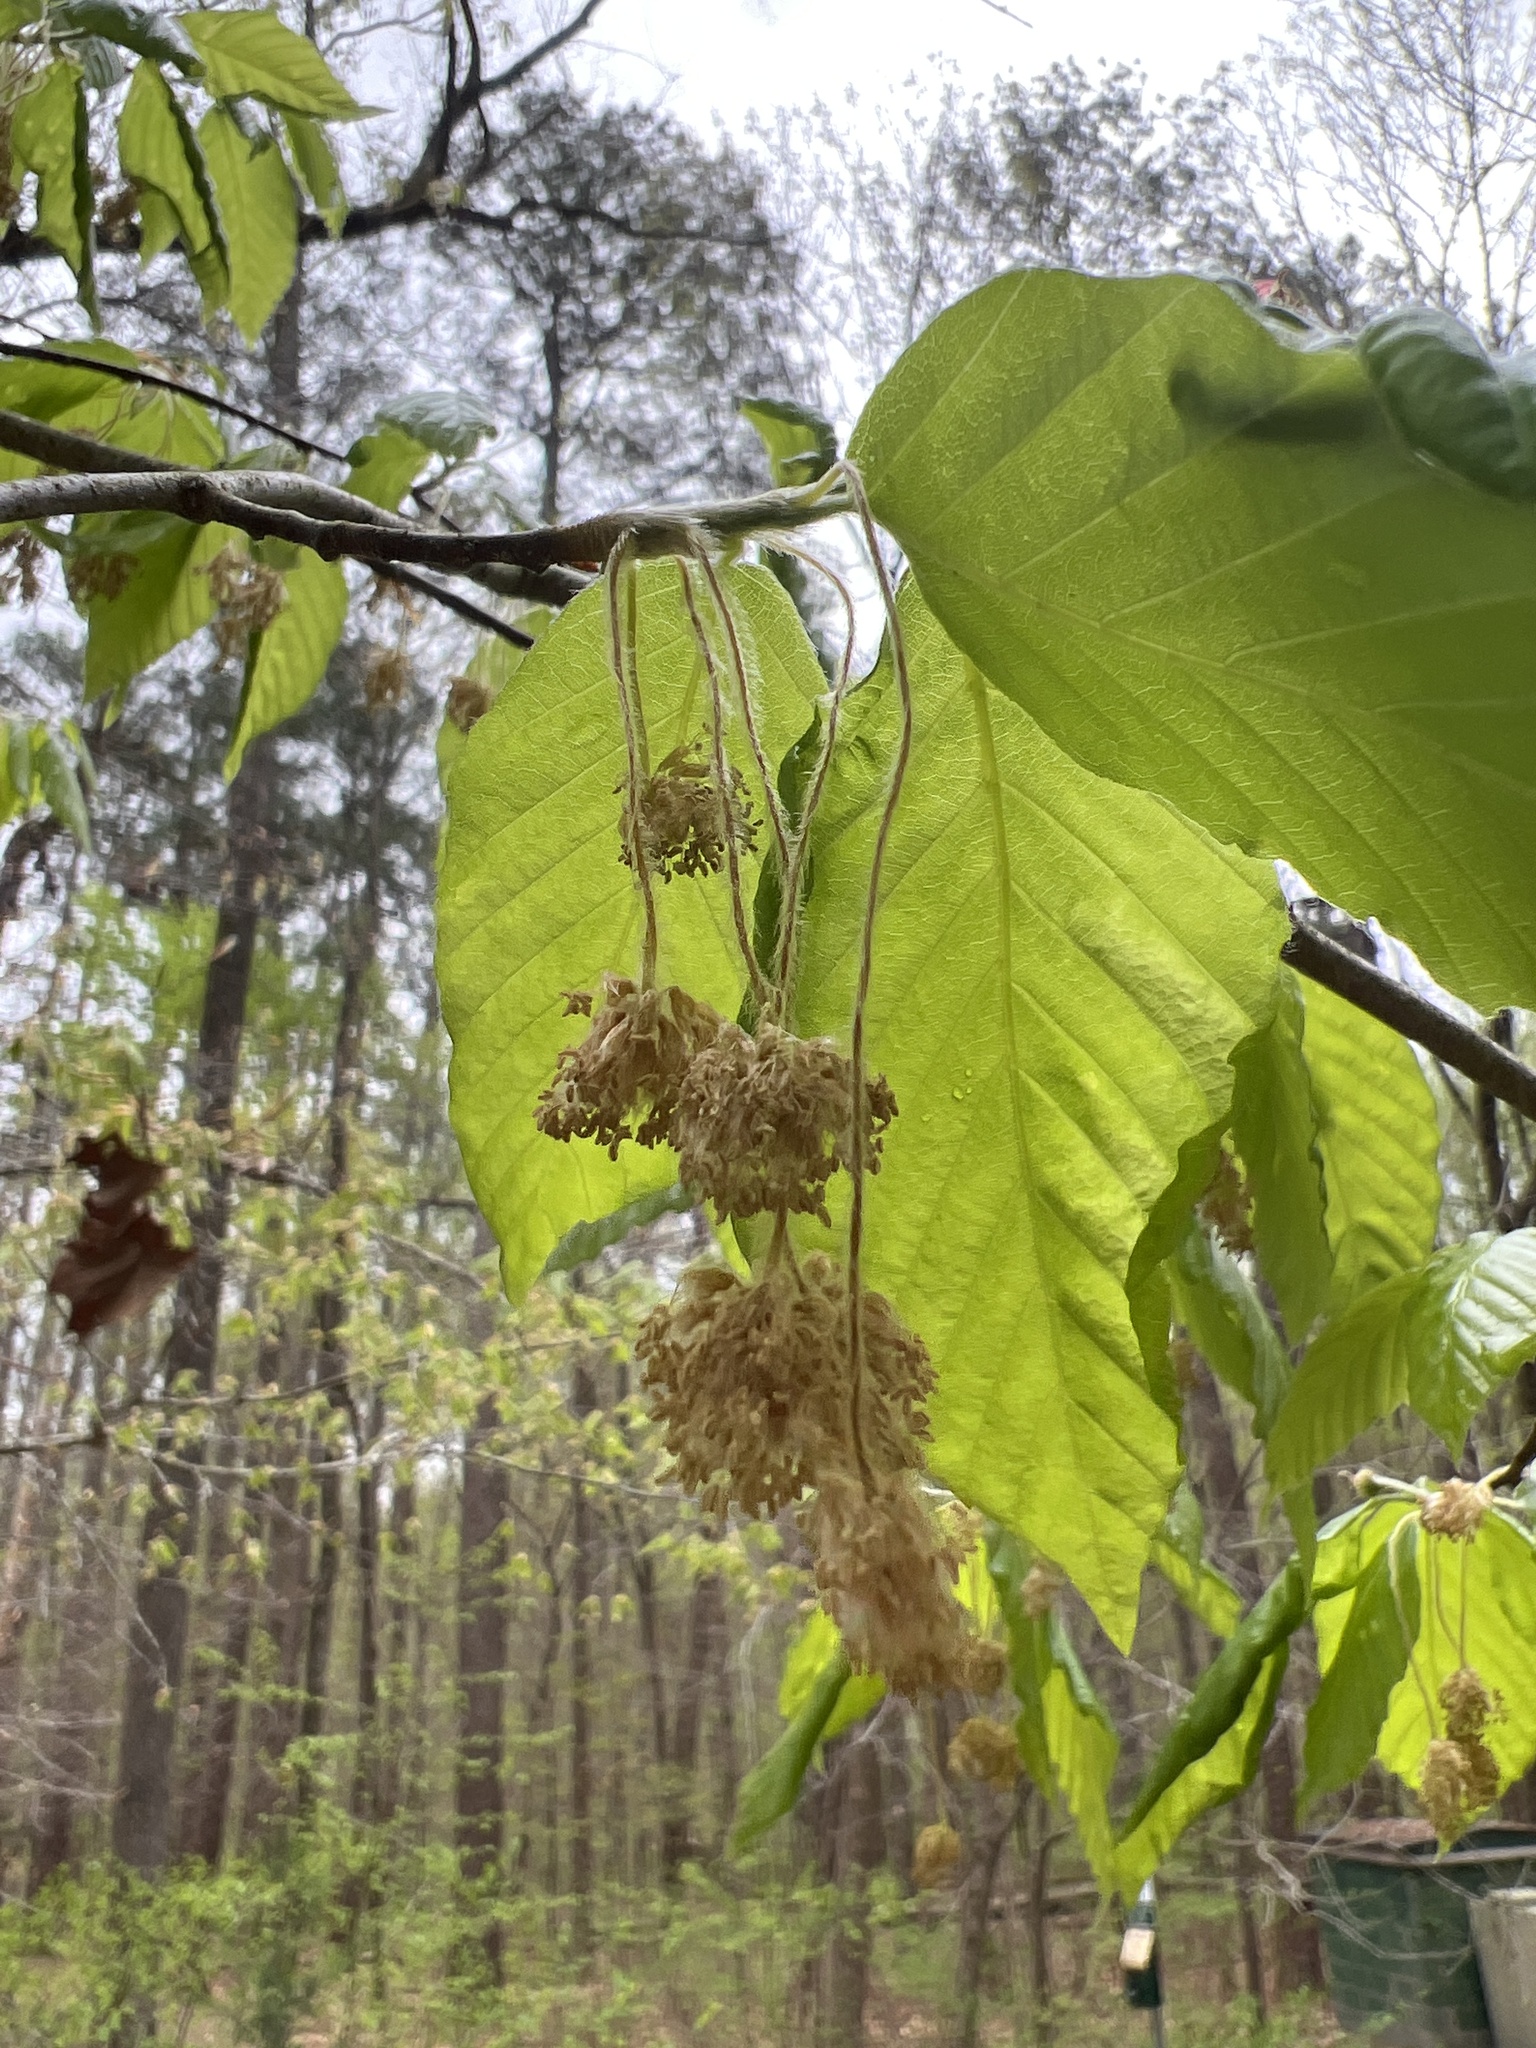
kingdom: Plantae
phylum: Tracheophyta
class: Magnoliopsida
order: Fagales
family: Fagaceae
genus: Fagus
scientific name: Fagus grandifolia
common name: American beech
